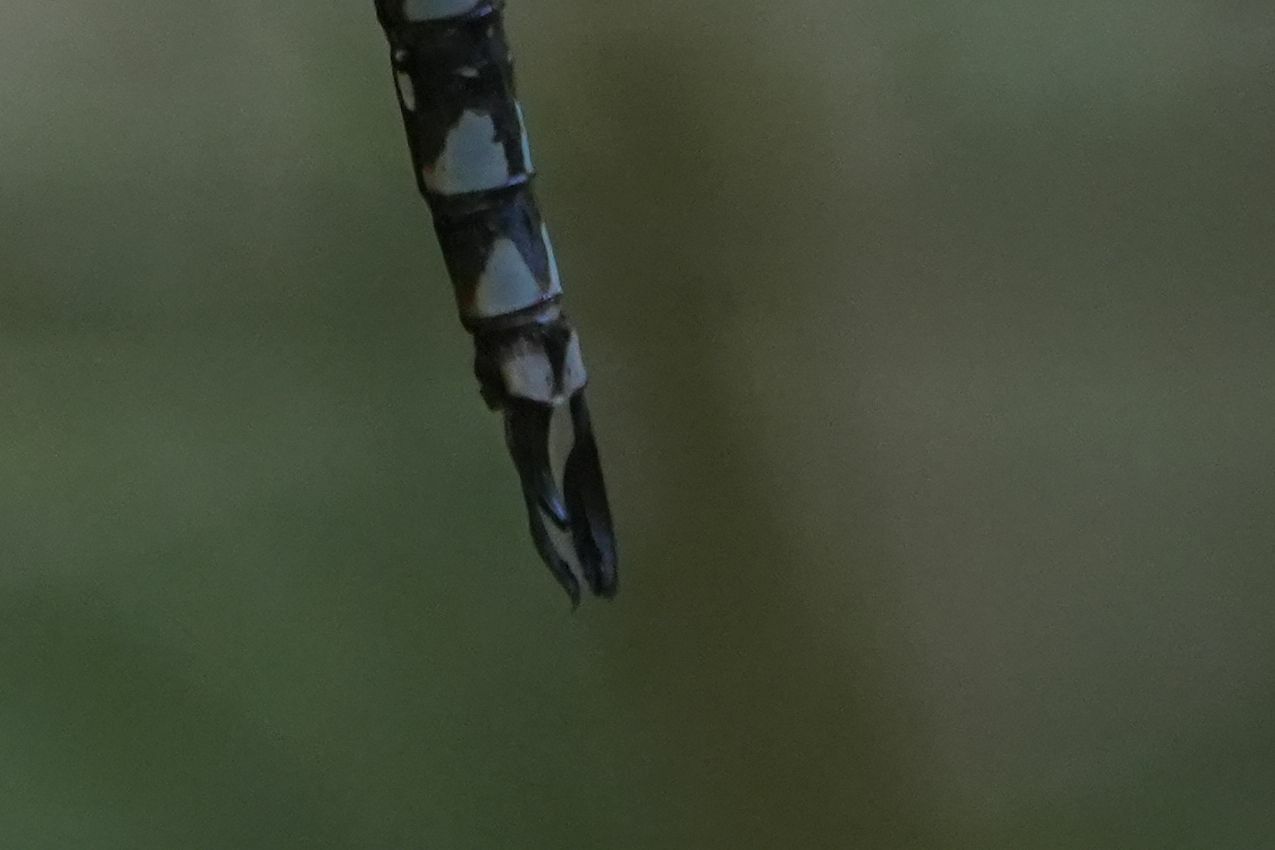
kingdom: Animalia
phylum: Arthropoda
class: Insecta
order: Odonata
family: Aeshnidae
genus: Aeshna
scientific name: Aeshna canadensis
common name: Canada darner
